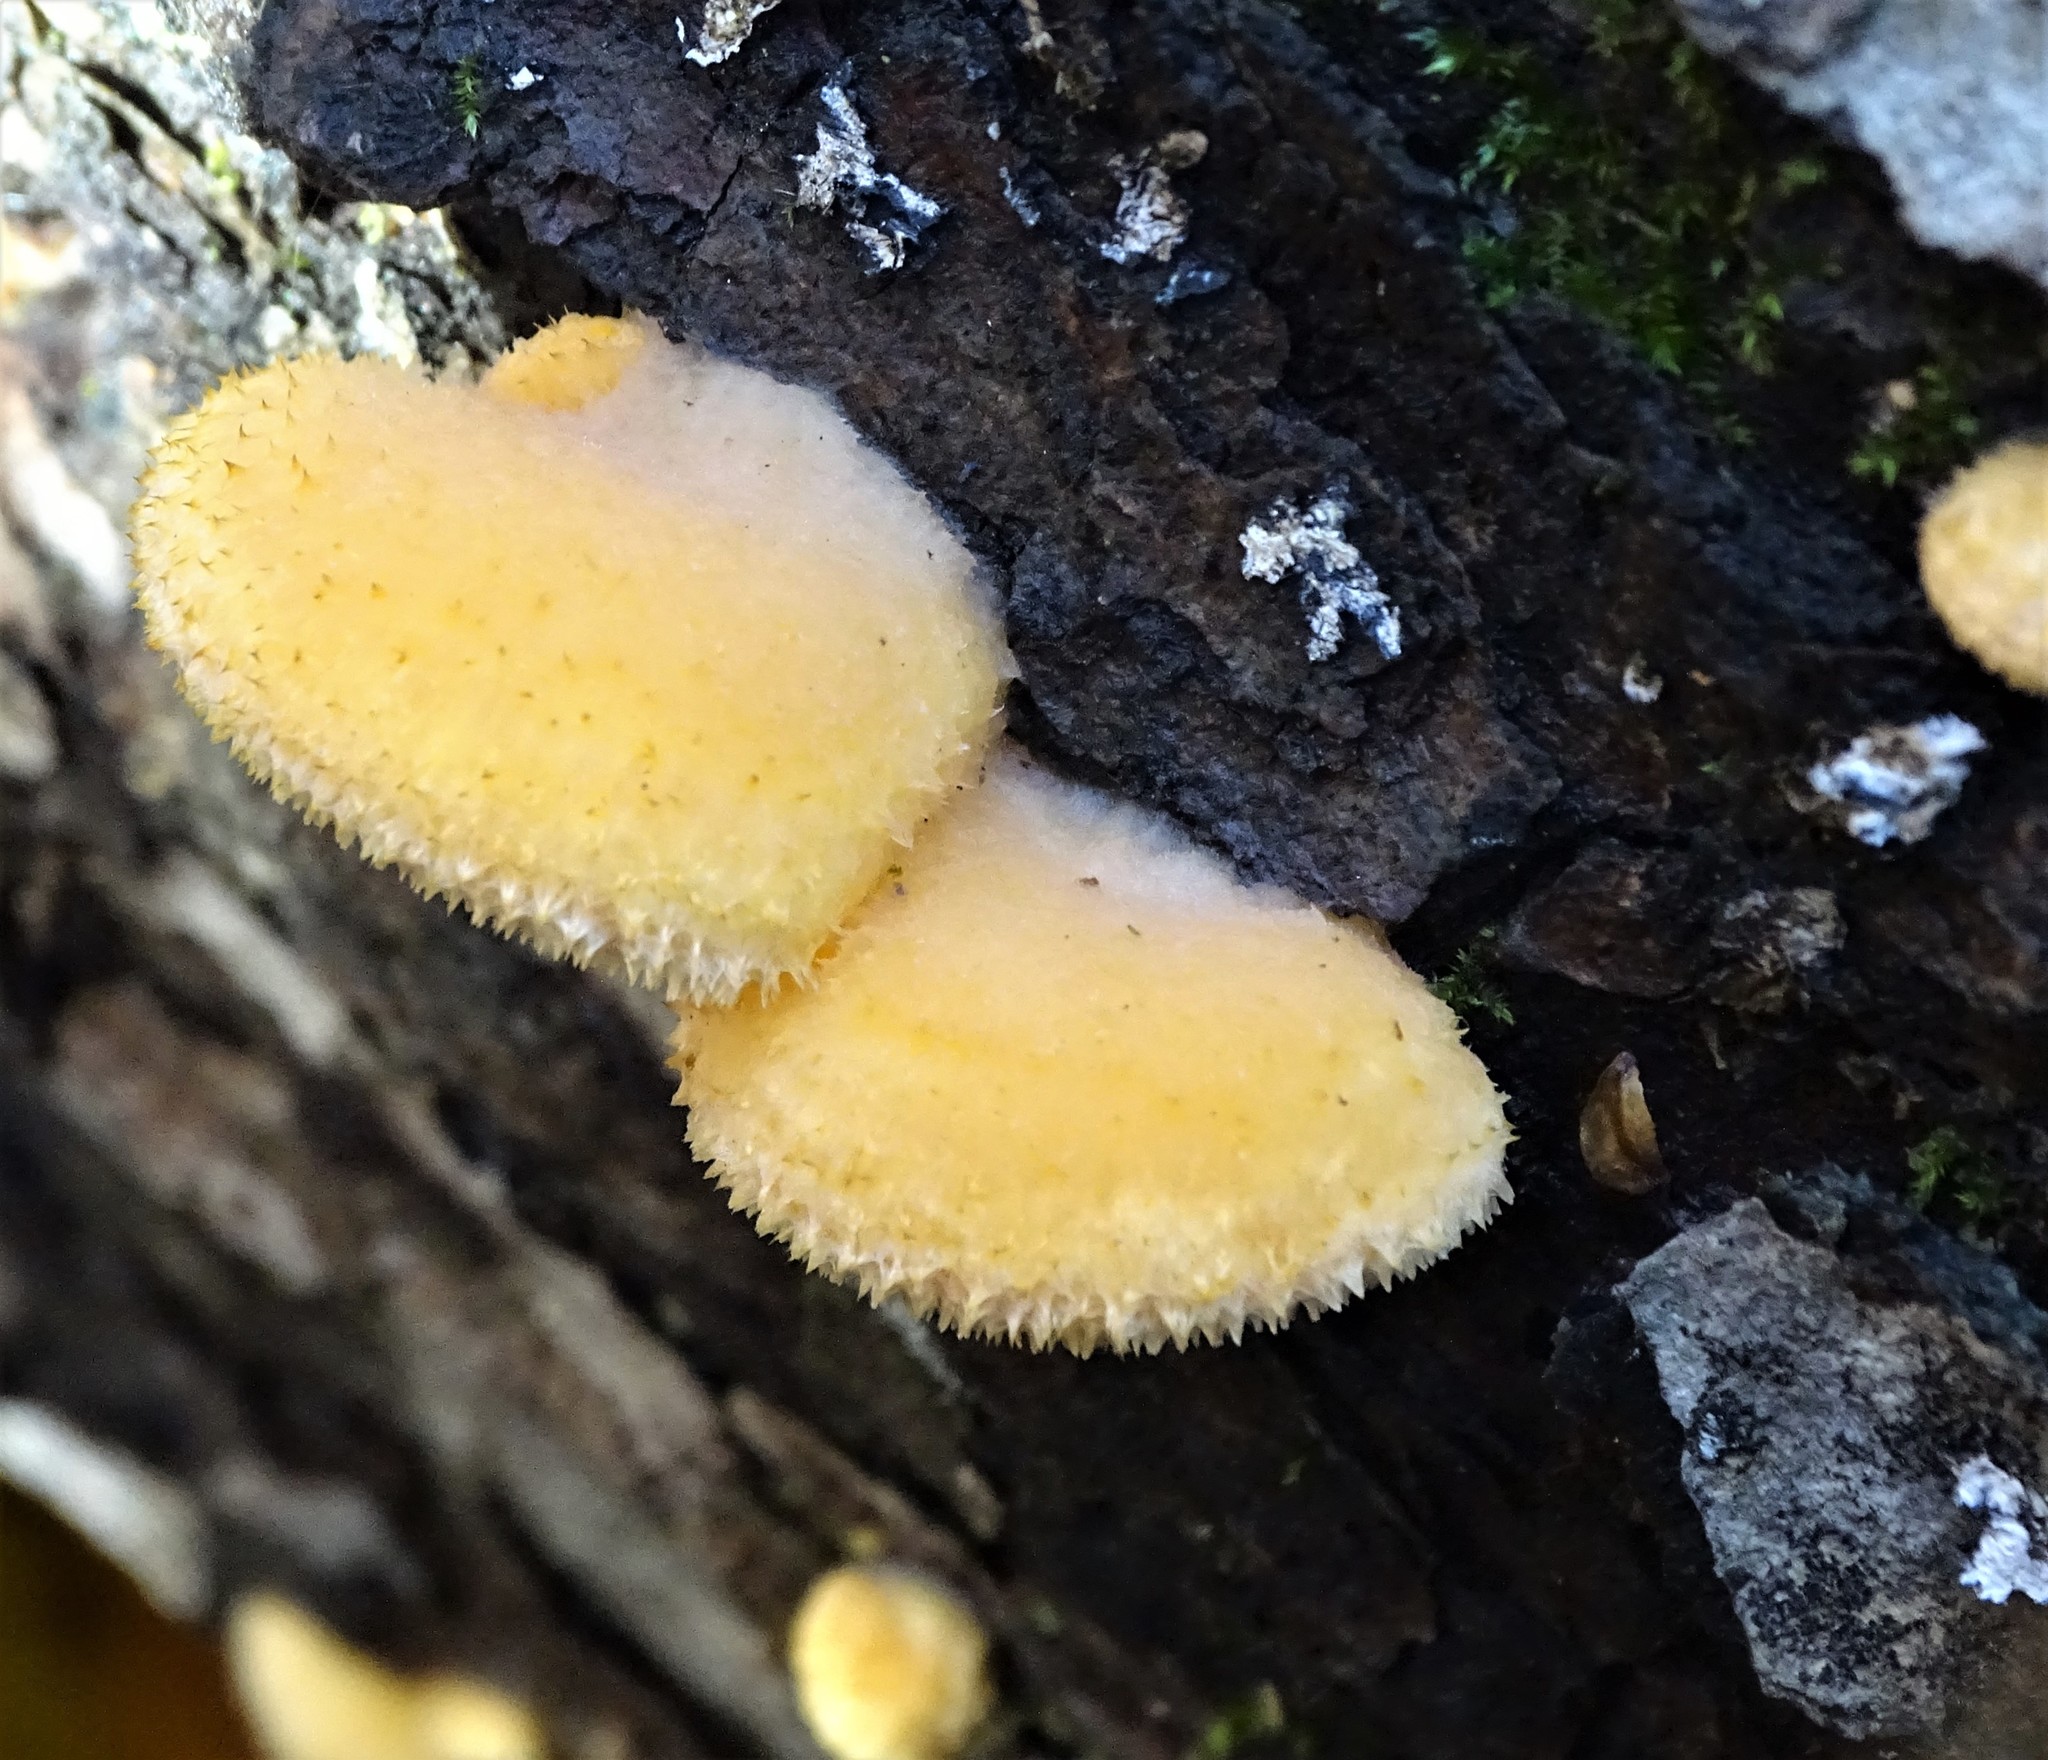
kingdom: Fungi
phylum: Basidiomycota
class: Agaricomycetes
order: Agaricales
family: Phyllotopsidaceae
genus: Phyllotopsis
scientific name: Phyllotopsis nidulans
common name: Orange mock oyster
